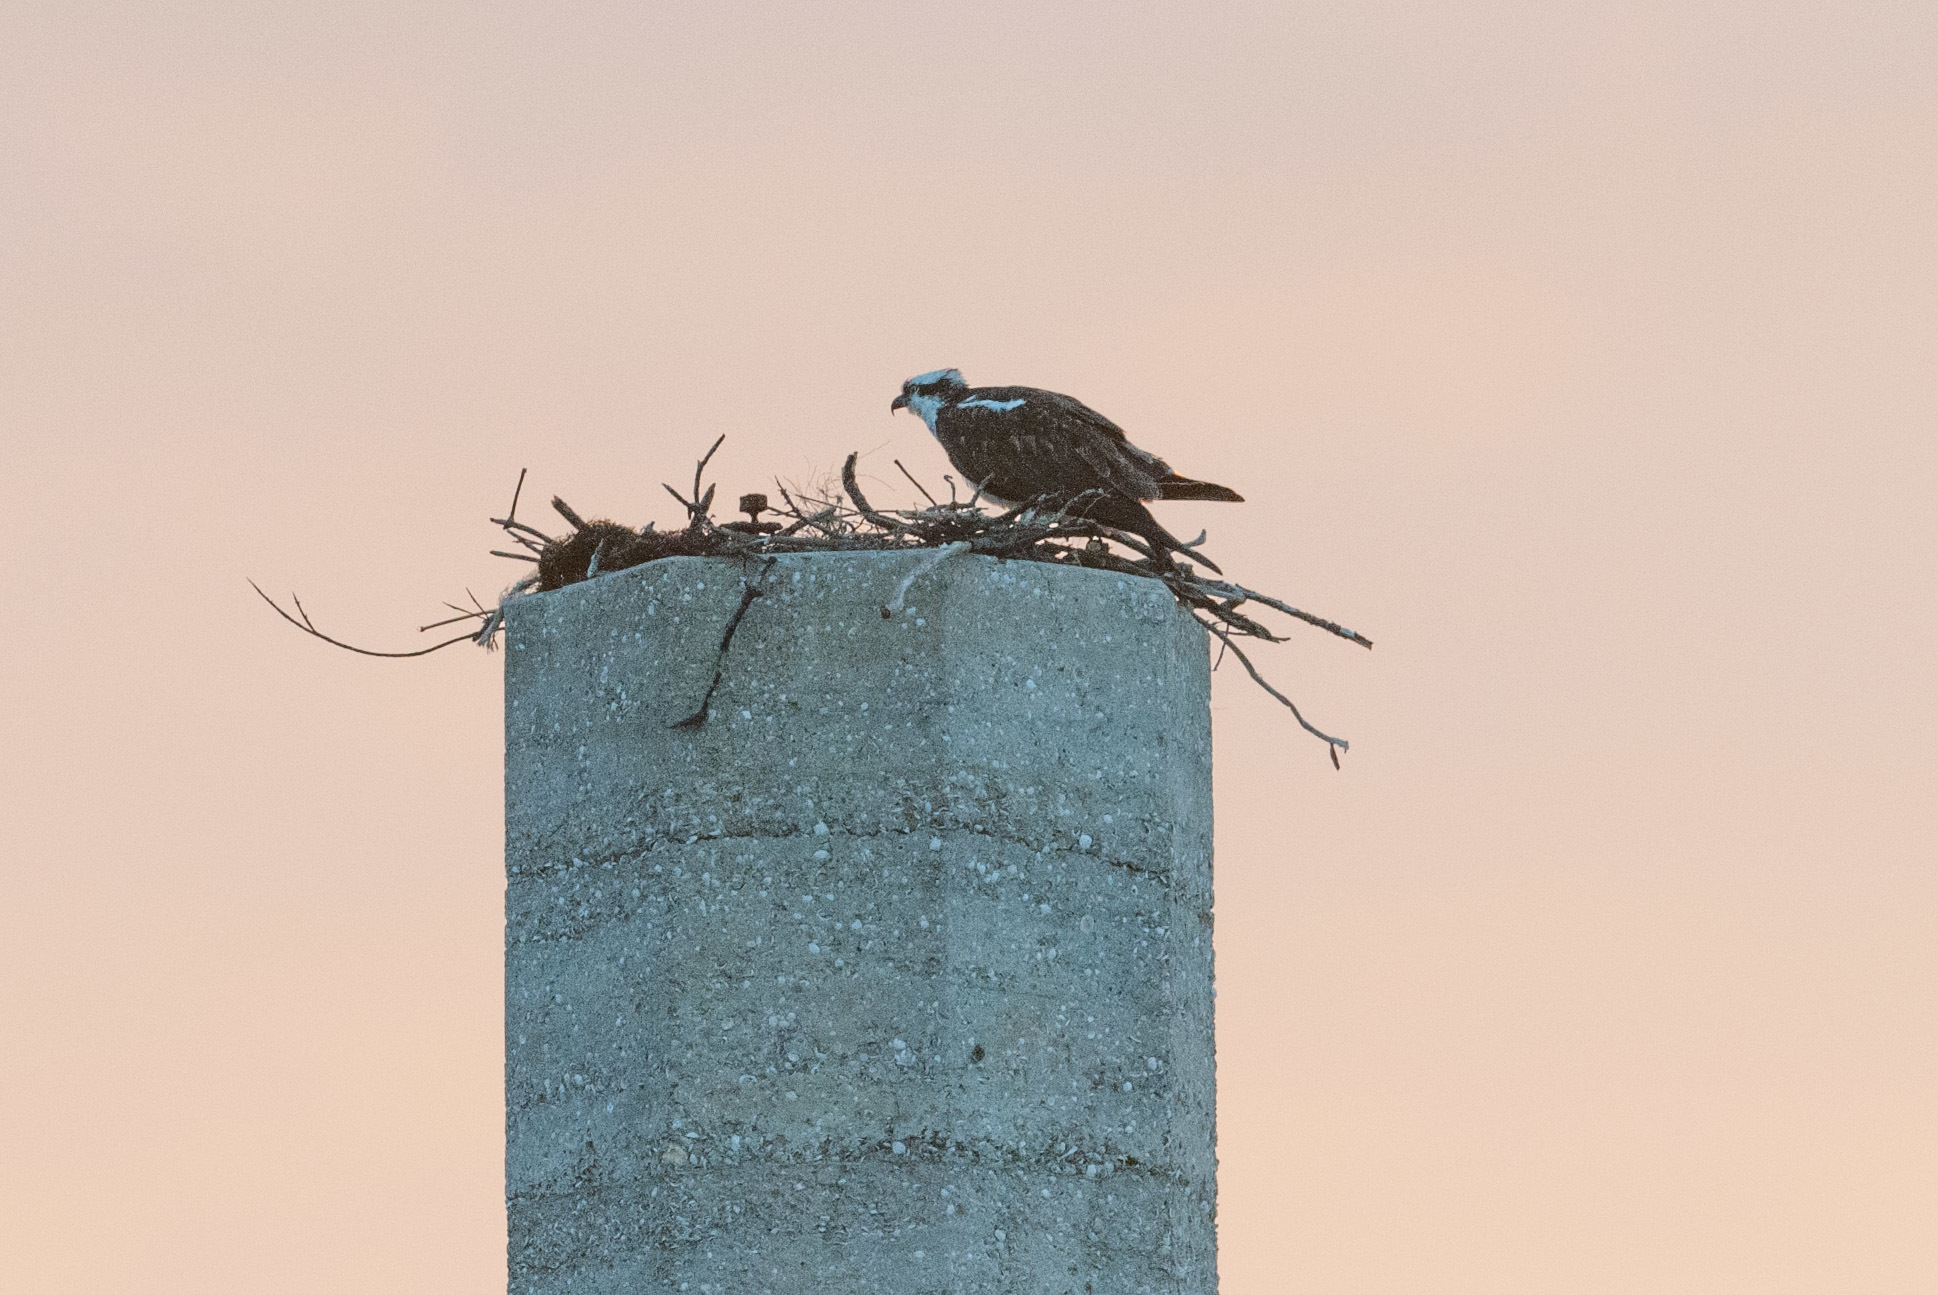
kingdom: Animalia
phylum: Chordata
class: Aves
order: Accipitriformes
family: Pandionidae
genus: Pandion
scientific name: Pandion haliaetus
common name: Osprey
